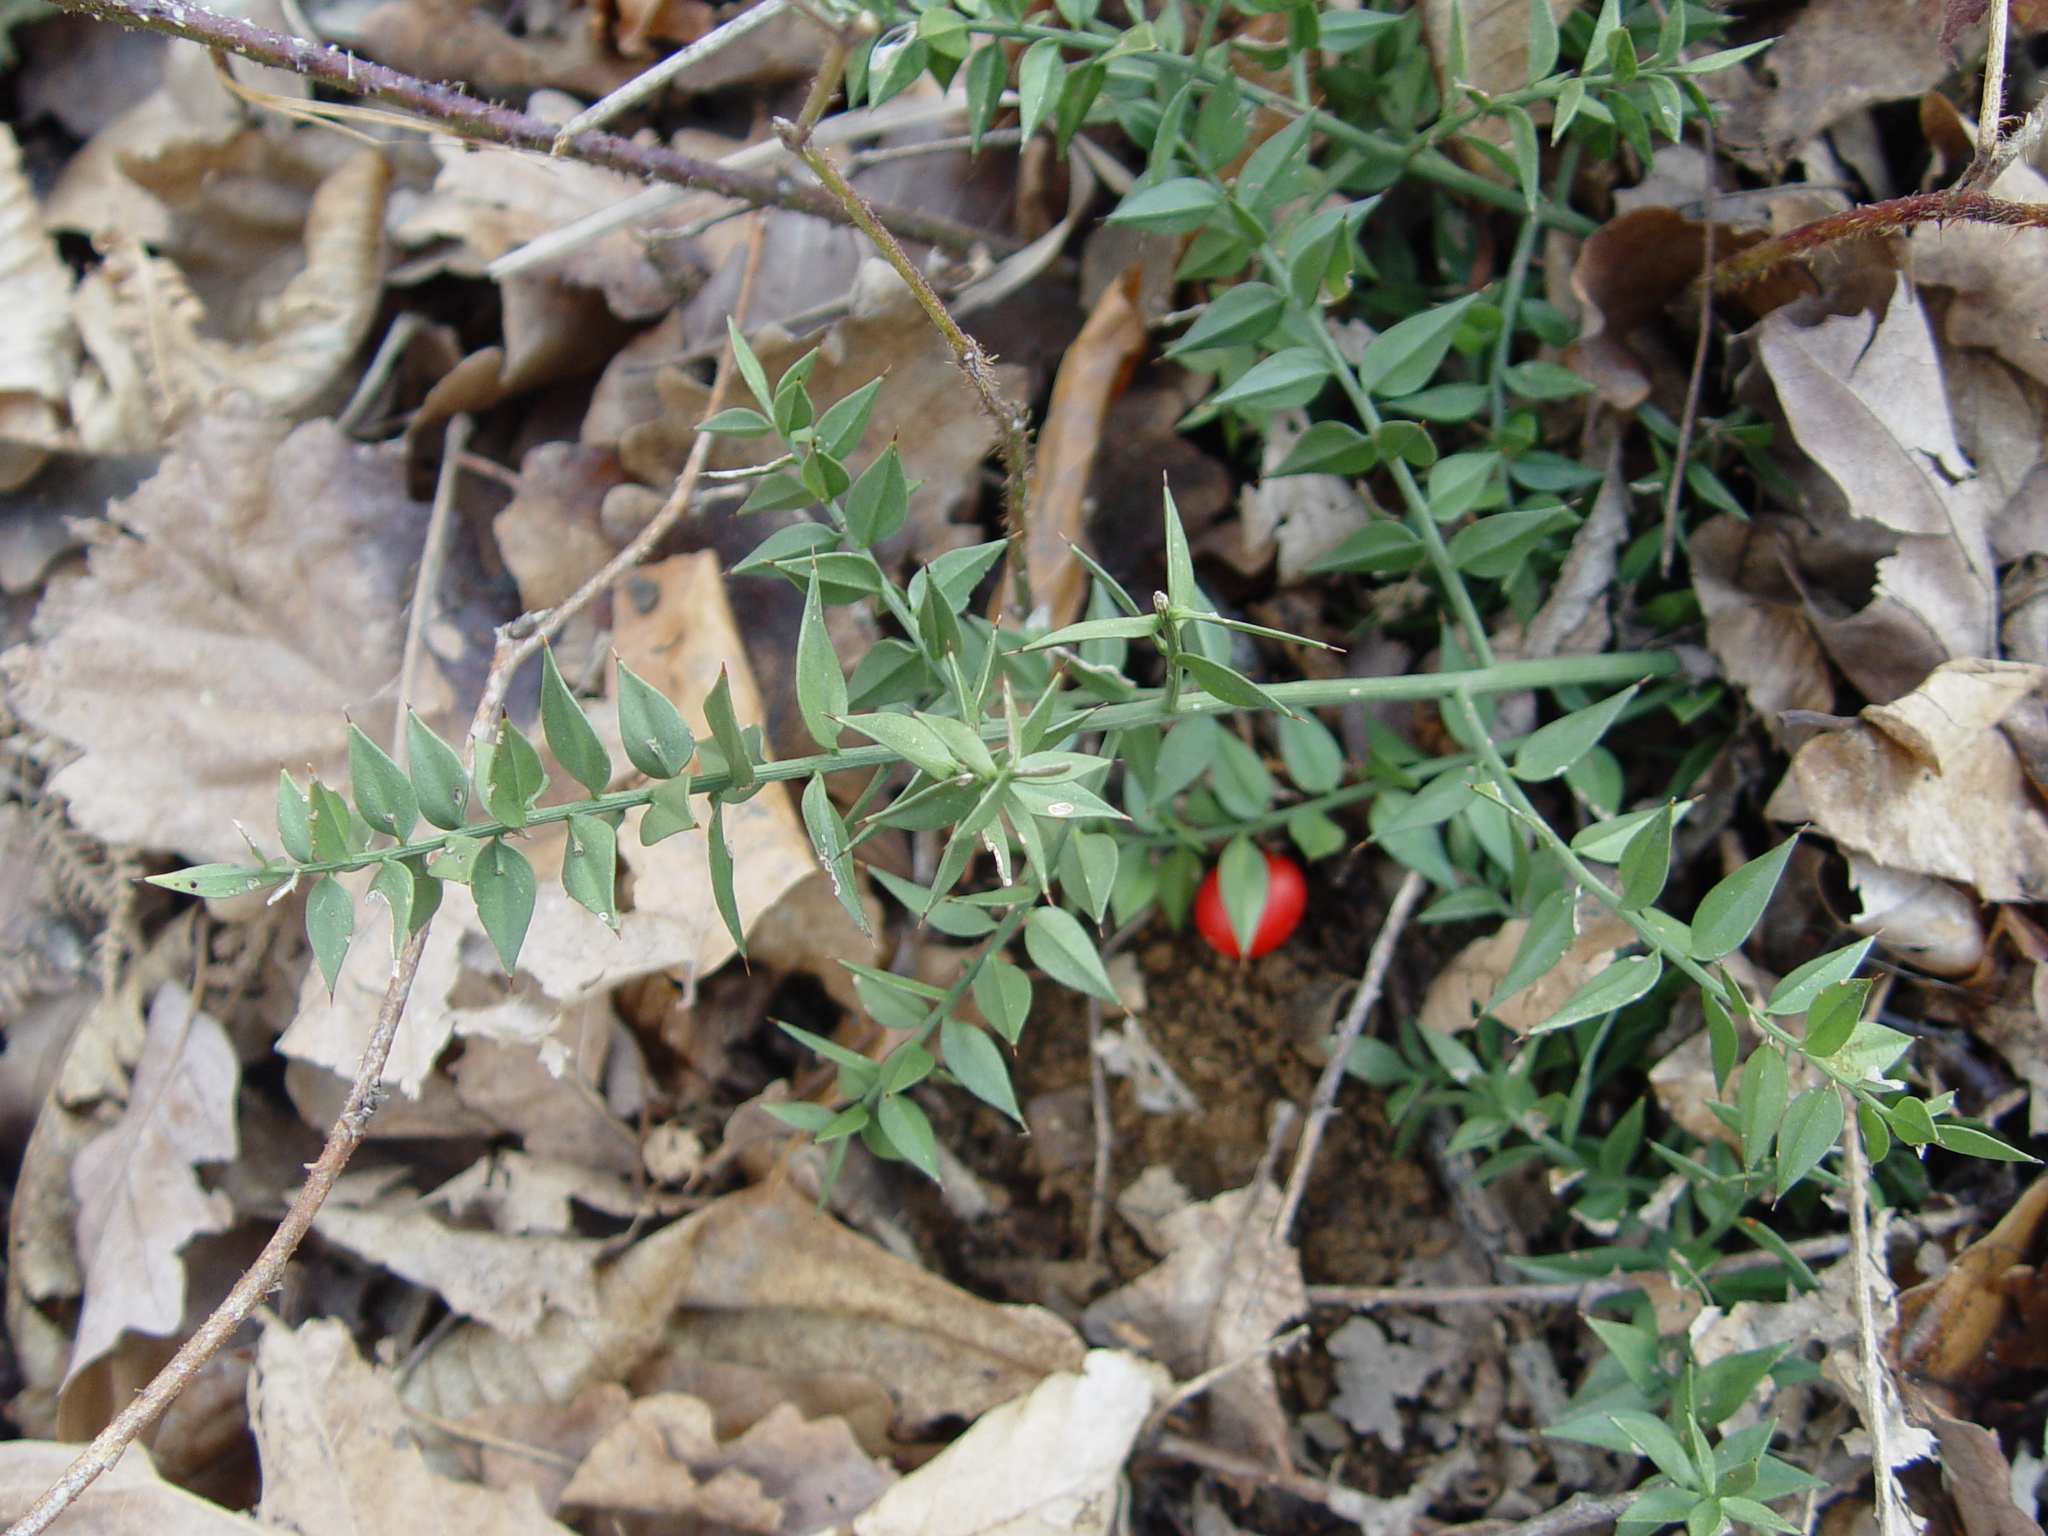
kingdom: Plantae
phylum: Tracheophyta
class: Liliopsida
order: Asparagales
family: Asparagaceae
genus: Ruscus
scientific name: Ruscus aculeatus
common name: Butcher's-broom
